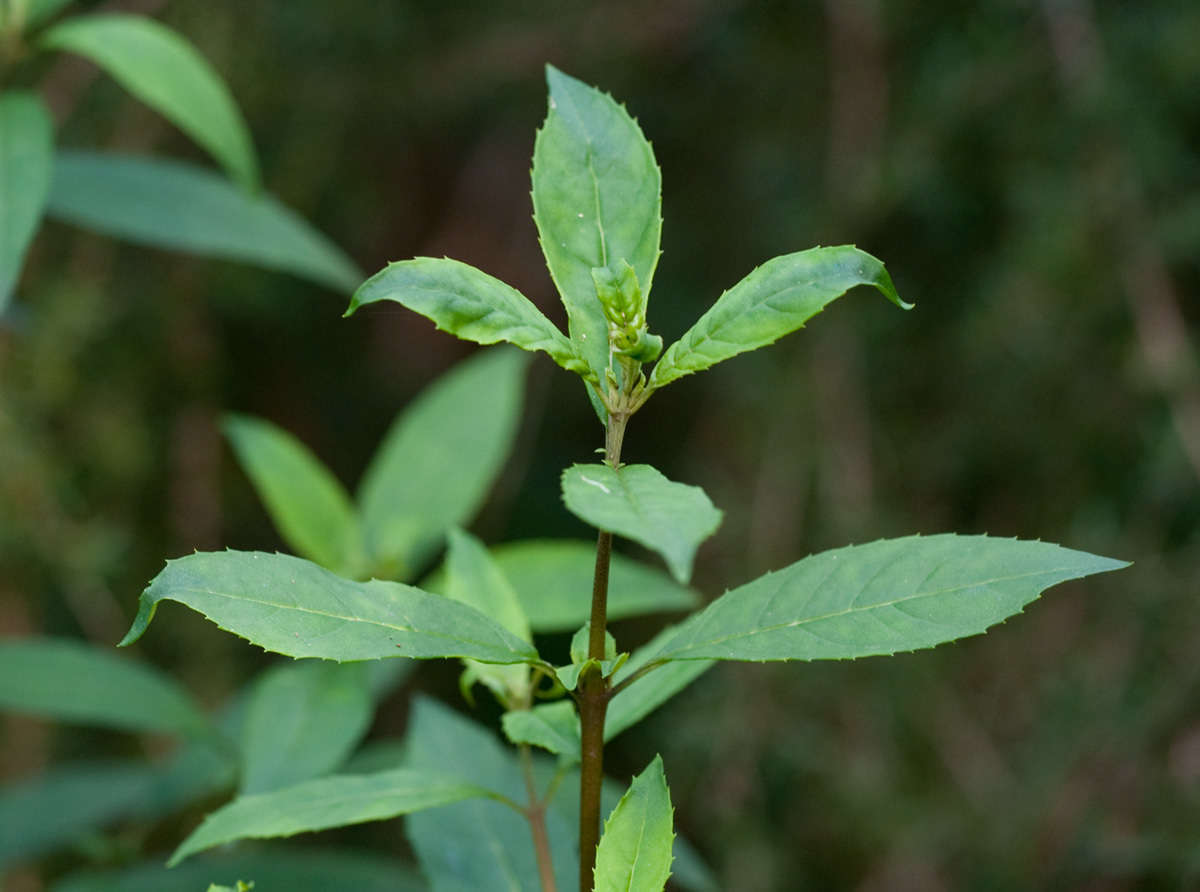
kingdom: Plantae
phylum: Tracheophyta
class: Magnoliopsida
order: Lamiales
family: Lamiaceae
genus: Prostanthera
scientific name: Prostanthera lasianthos
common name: Mountain-lilac
